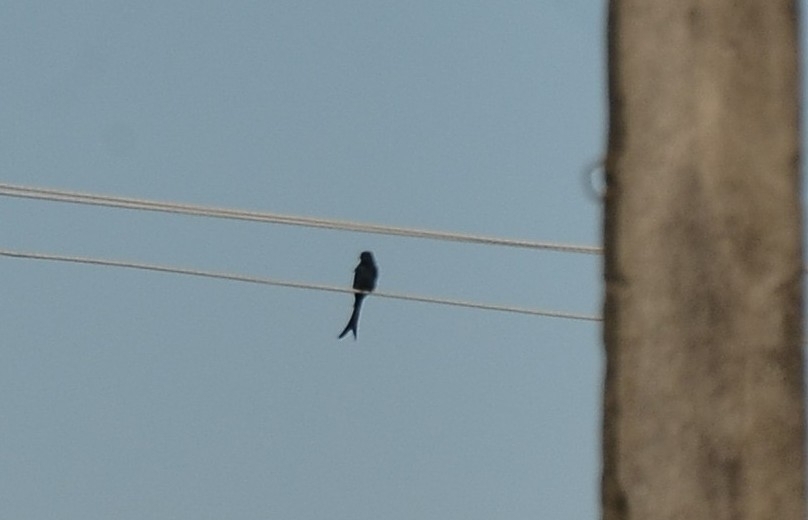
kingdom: Animalia
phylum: Chordata
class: Aves
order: Passeriformes
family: Dicruridae
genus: Dicrurus
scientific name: Dicrurus macrocercus
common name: Black drongo
